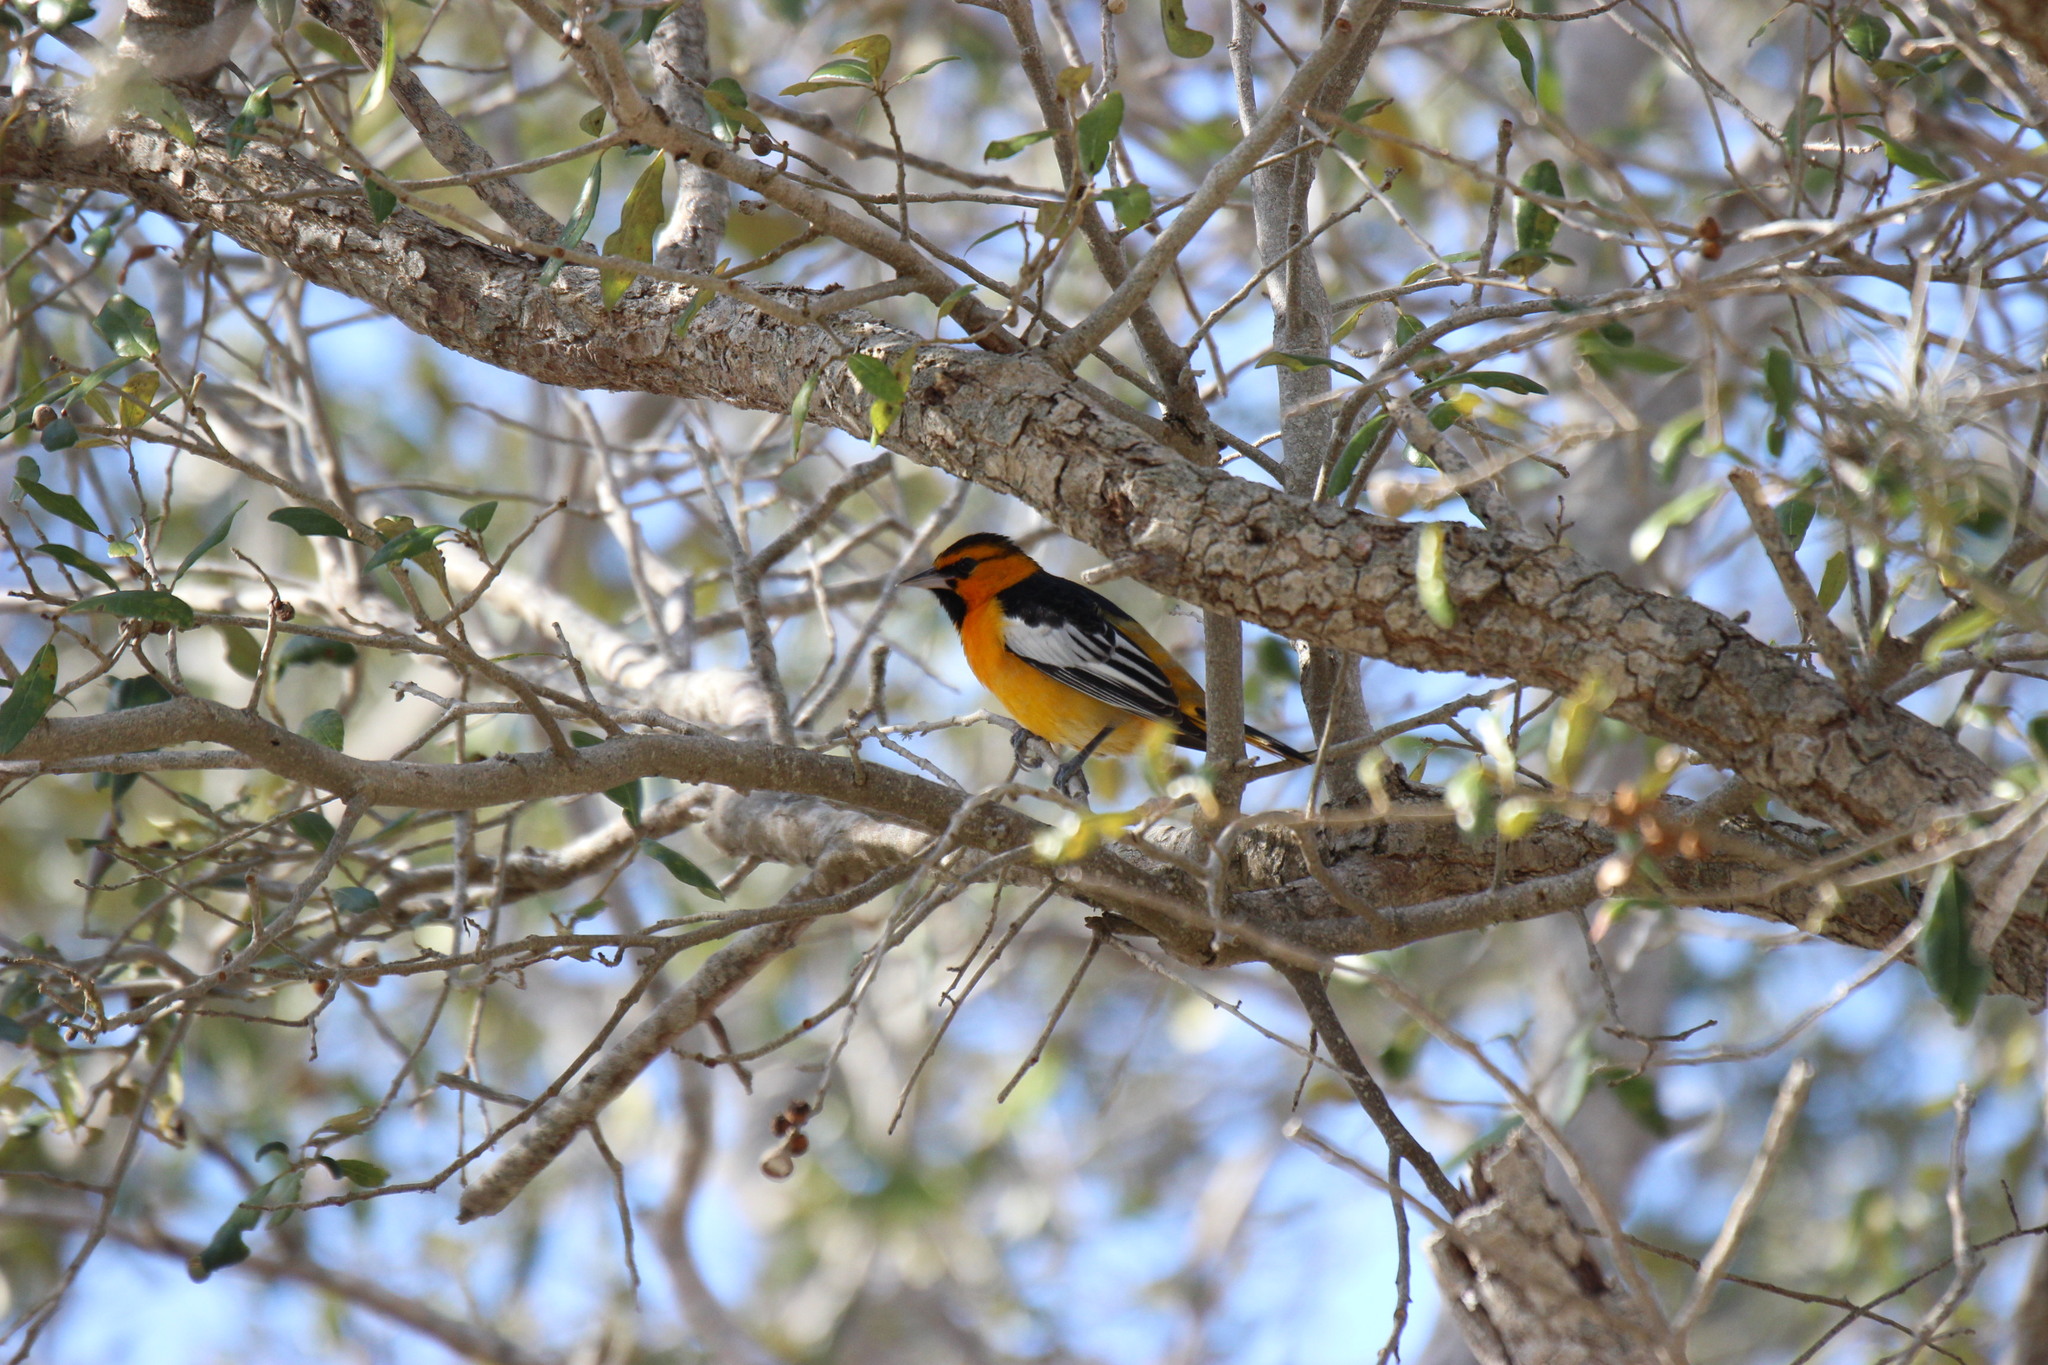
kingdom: Animalia
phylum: Chordata
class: Aves
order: Passeriformes
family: Icteridae
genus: Icterus
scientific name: Icterus bullockii
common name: Bullock's oriole
